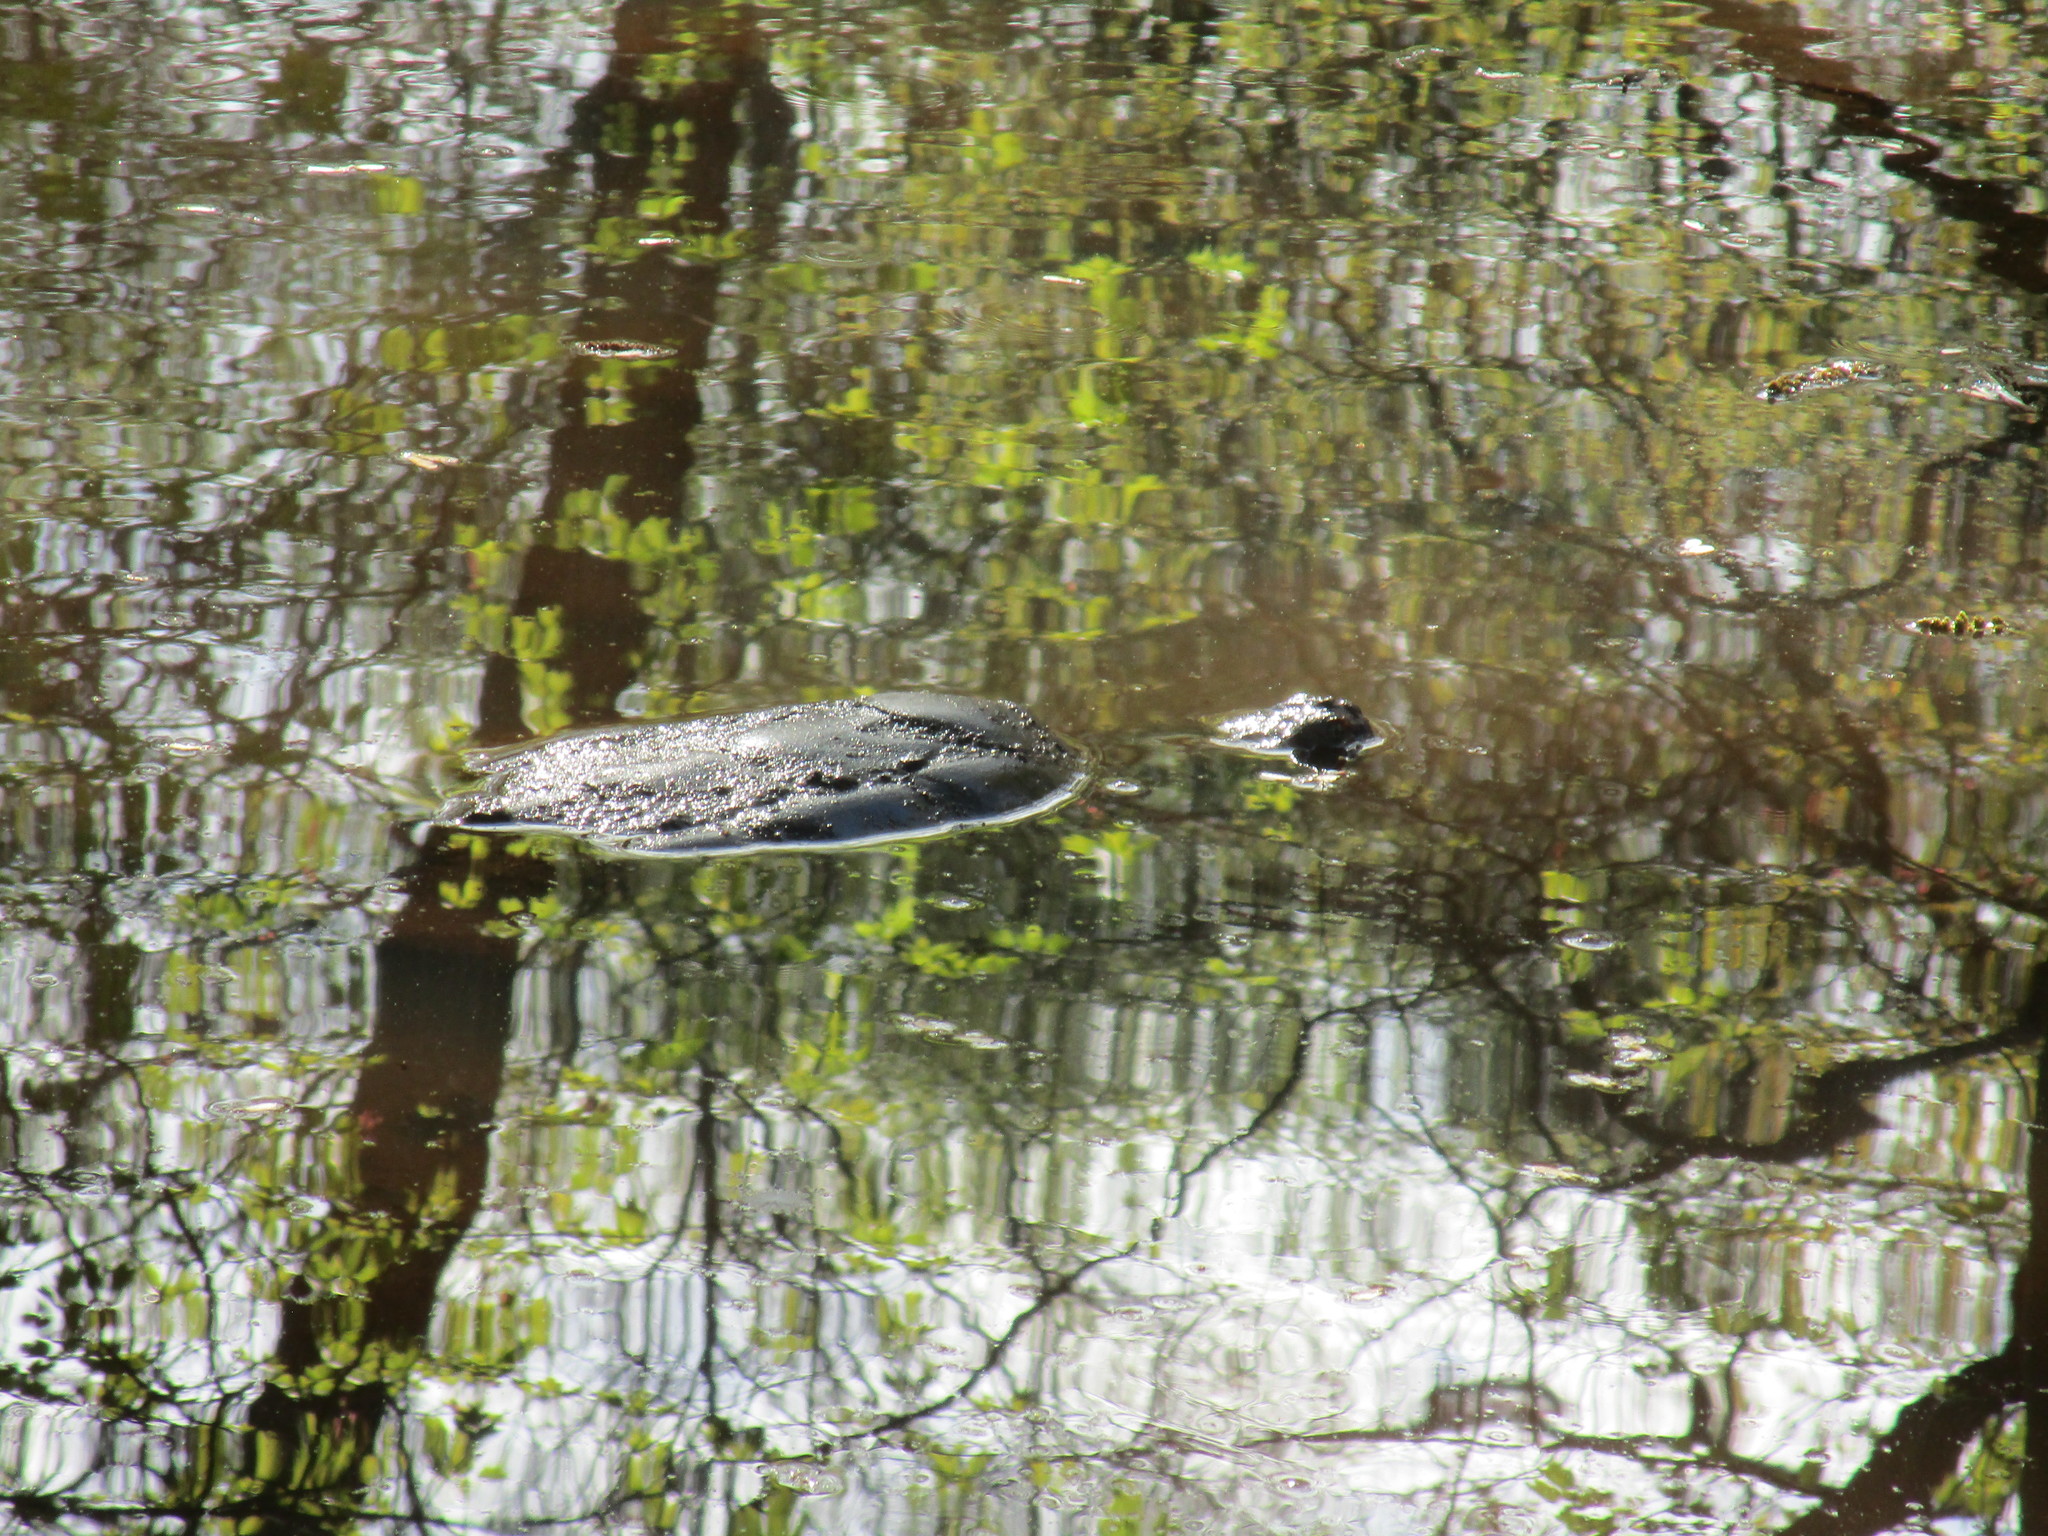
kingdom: Animalia
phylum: Chordata
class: Testudines
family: Chelydridae
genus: Chelydra
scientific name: Chelydra serpentina
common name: Common snapping turtle
